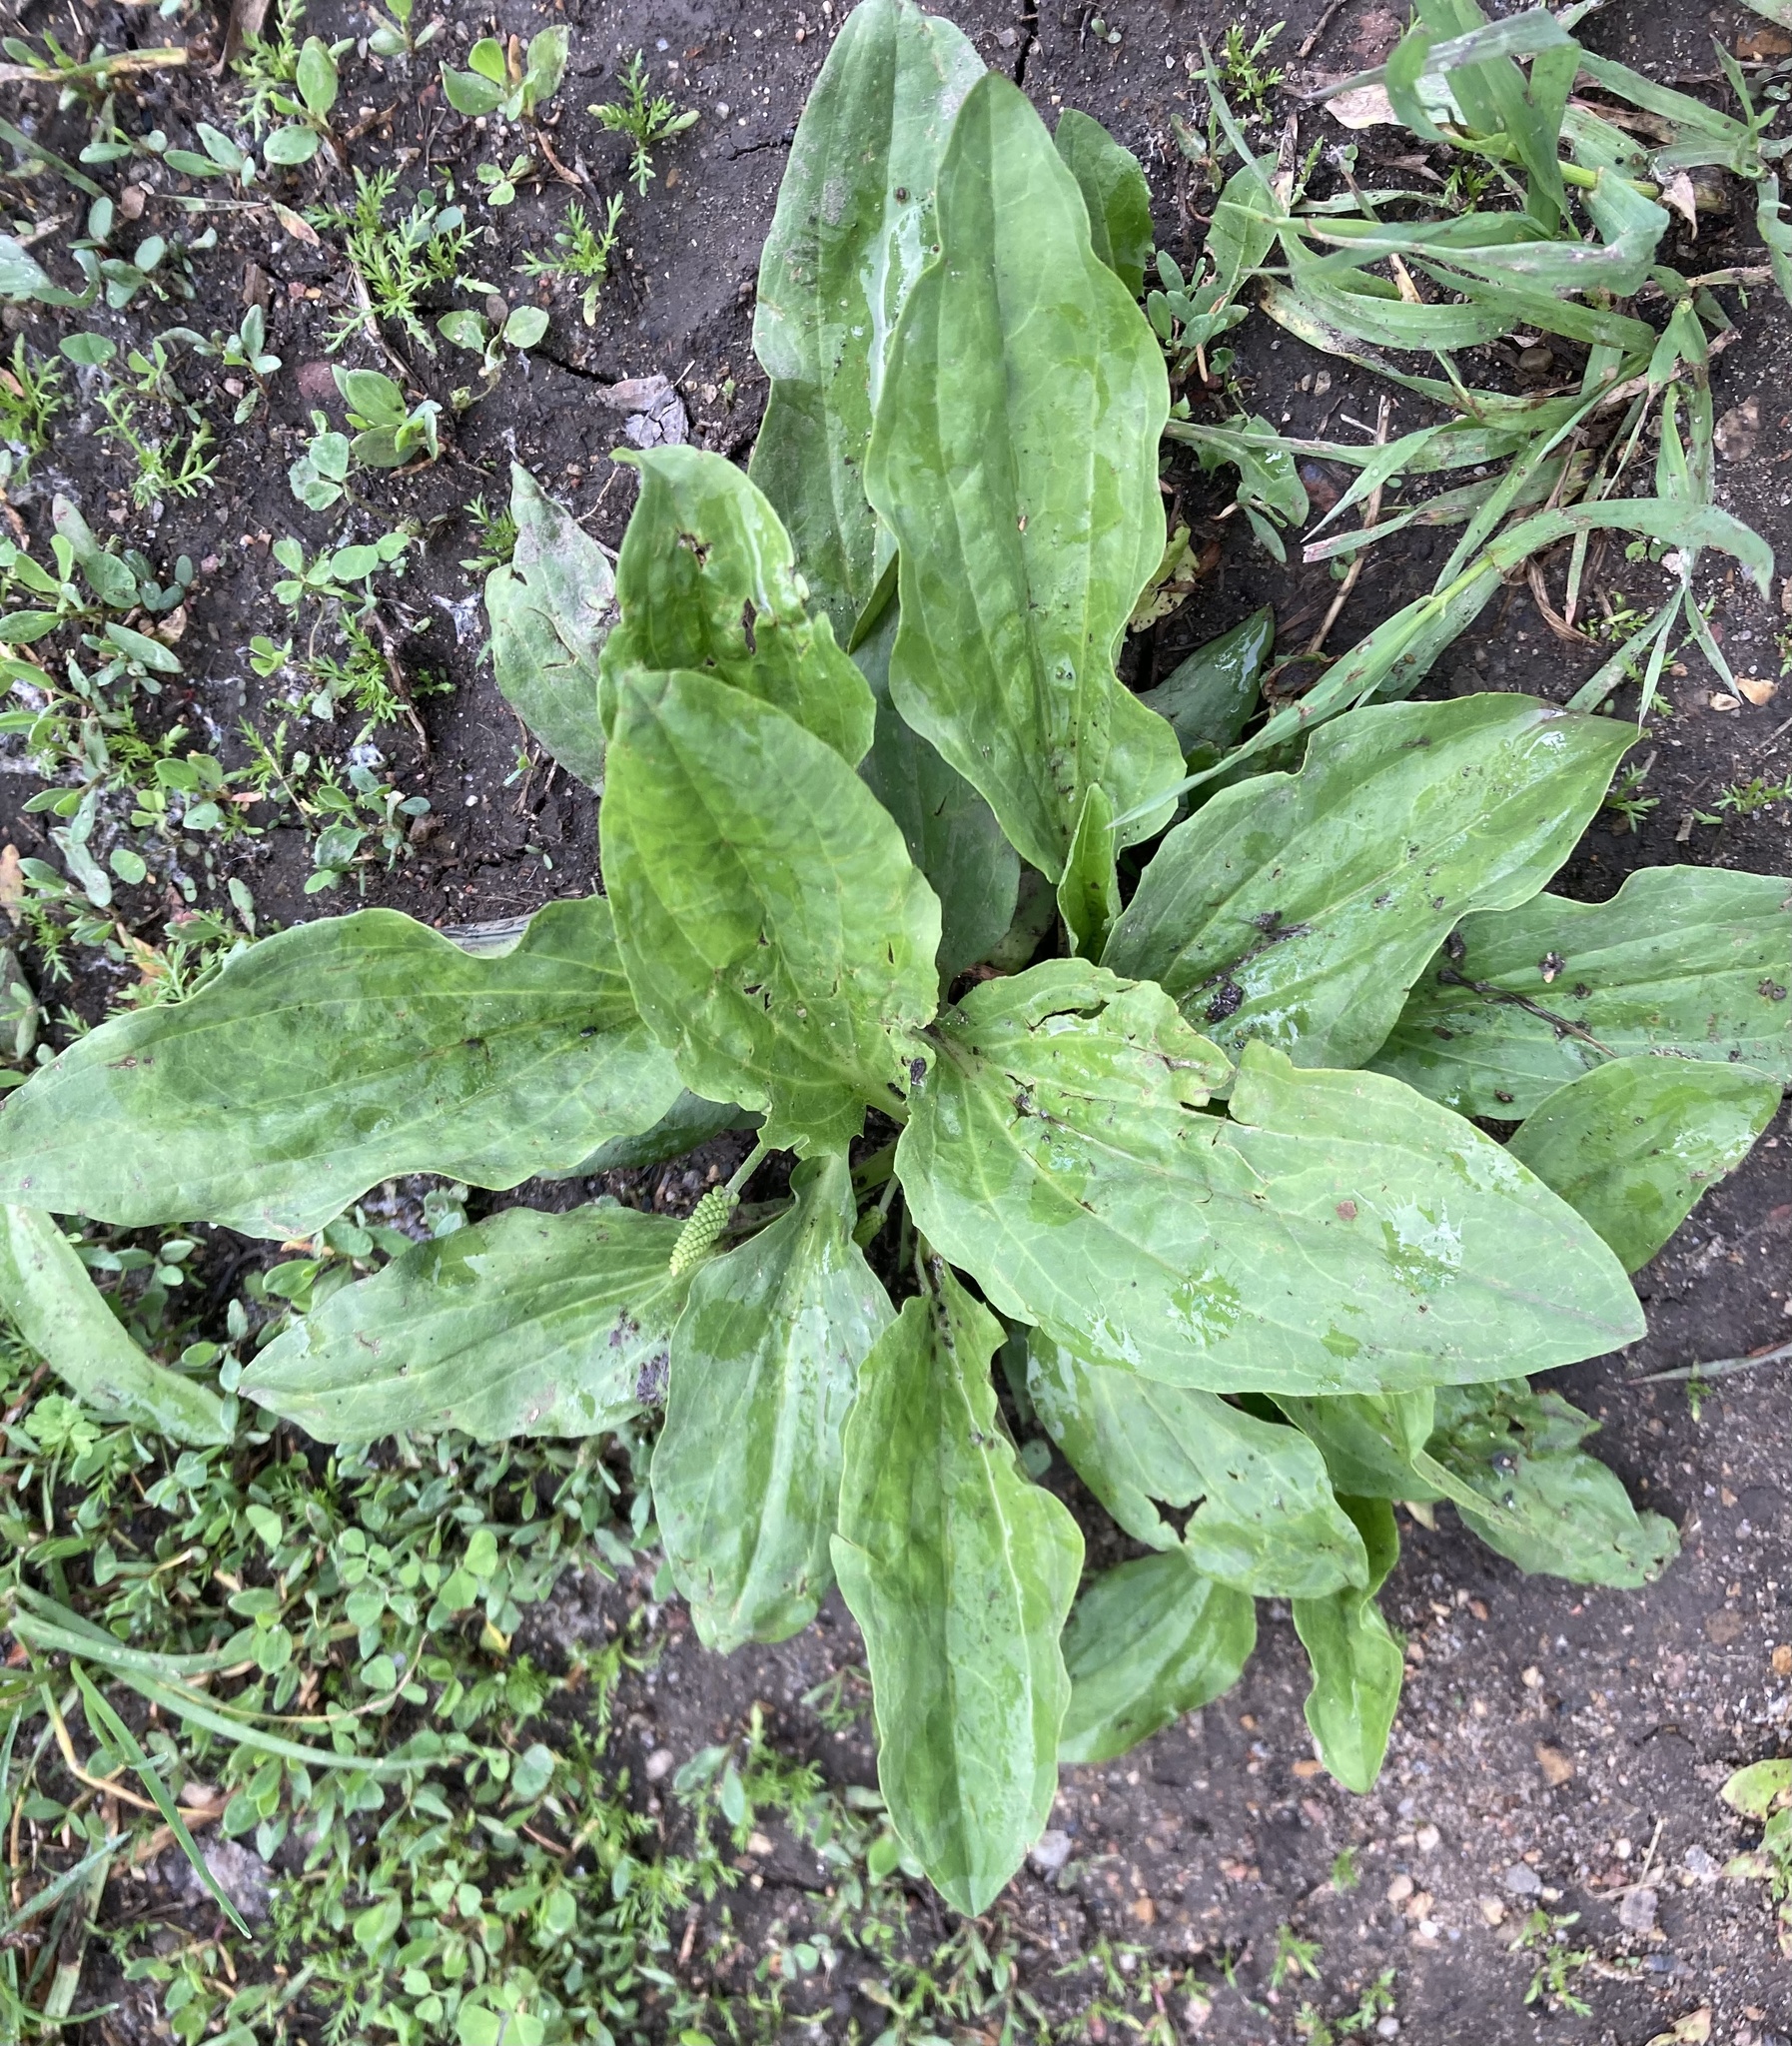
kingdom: Plantae
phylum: Tracheophyta
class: Magnoliopsida
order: Lamiales
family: Plantaginaceae
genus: Plantago
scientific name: Plantago major
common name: Common plantain
